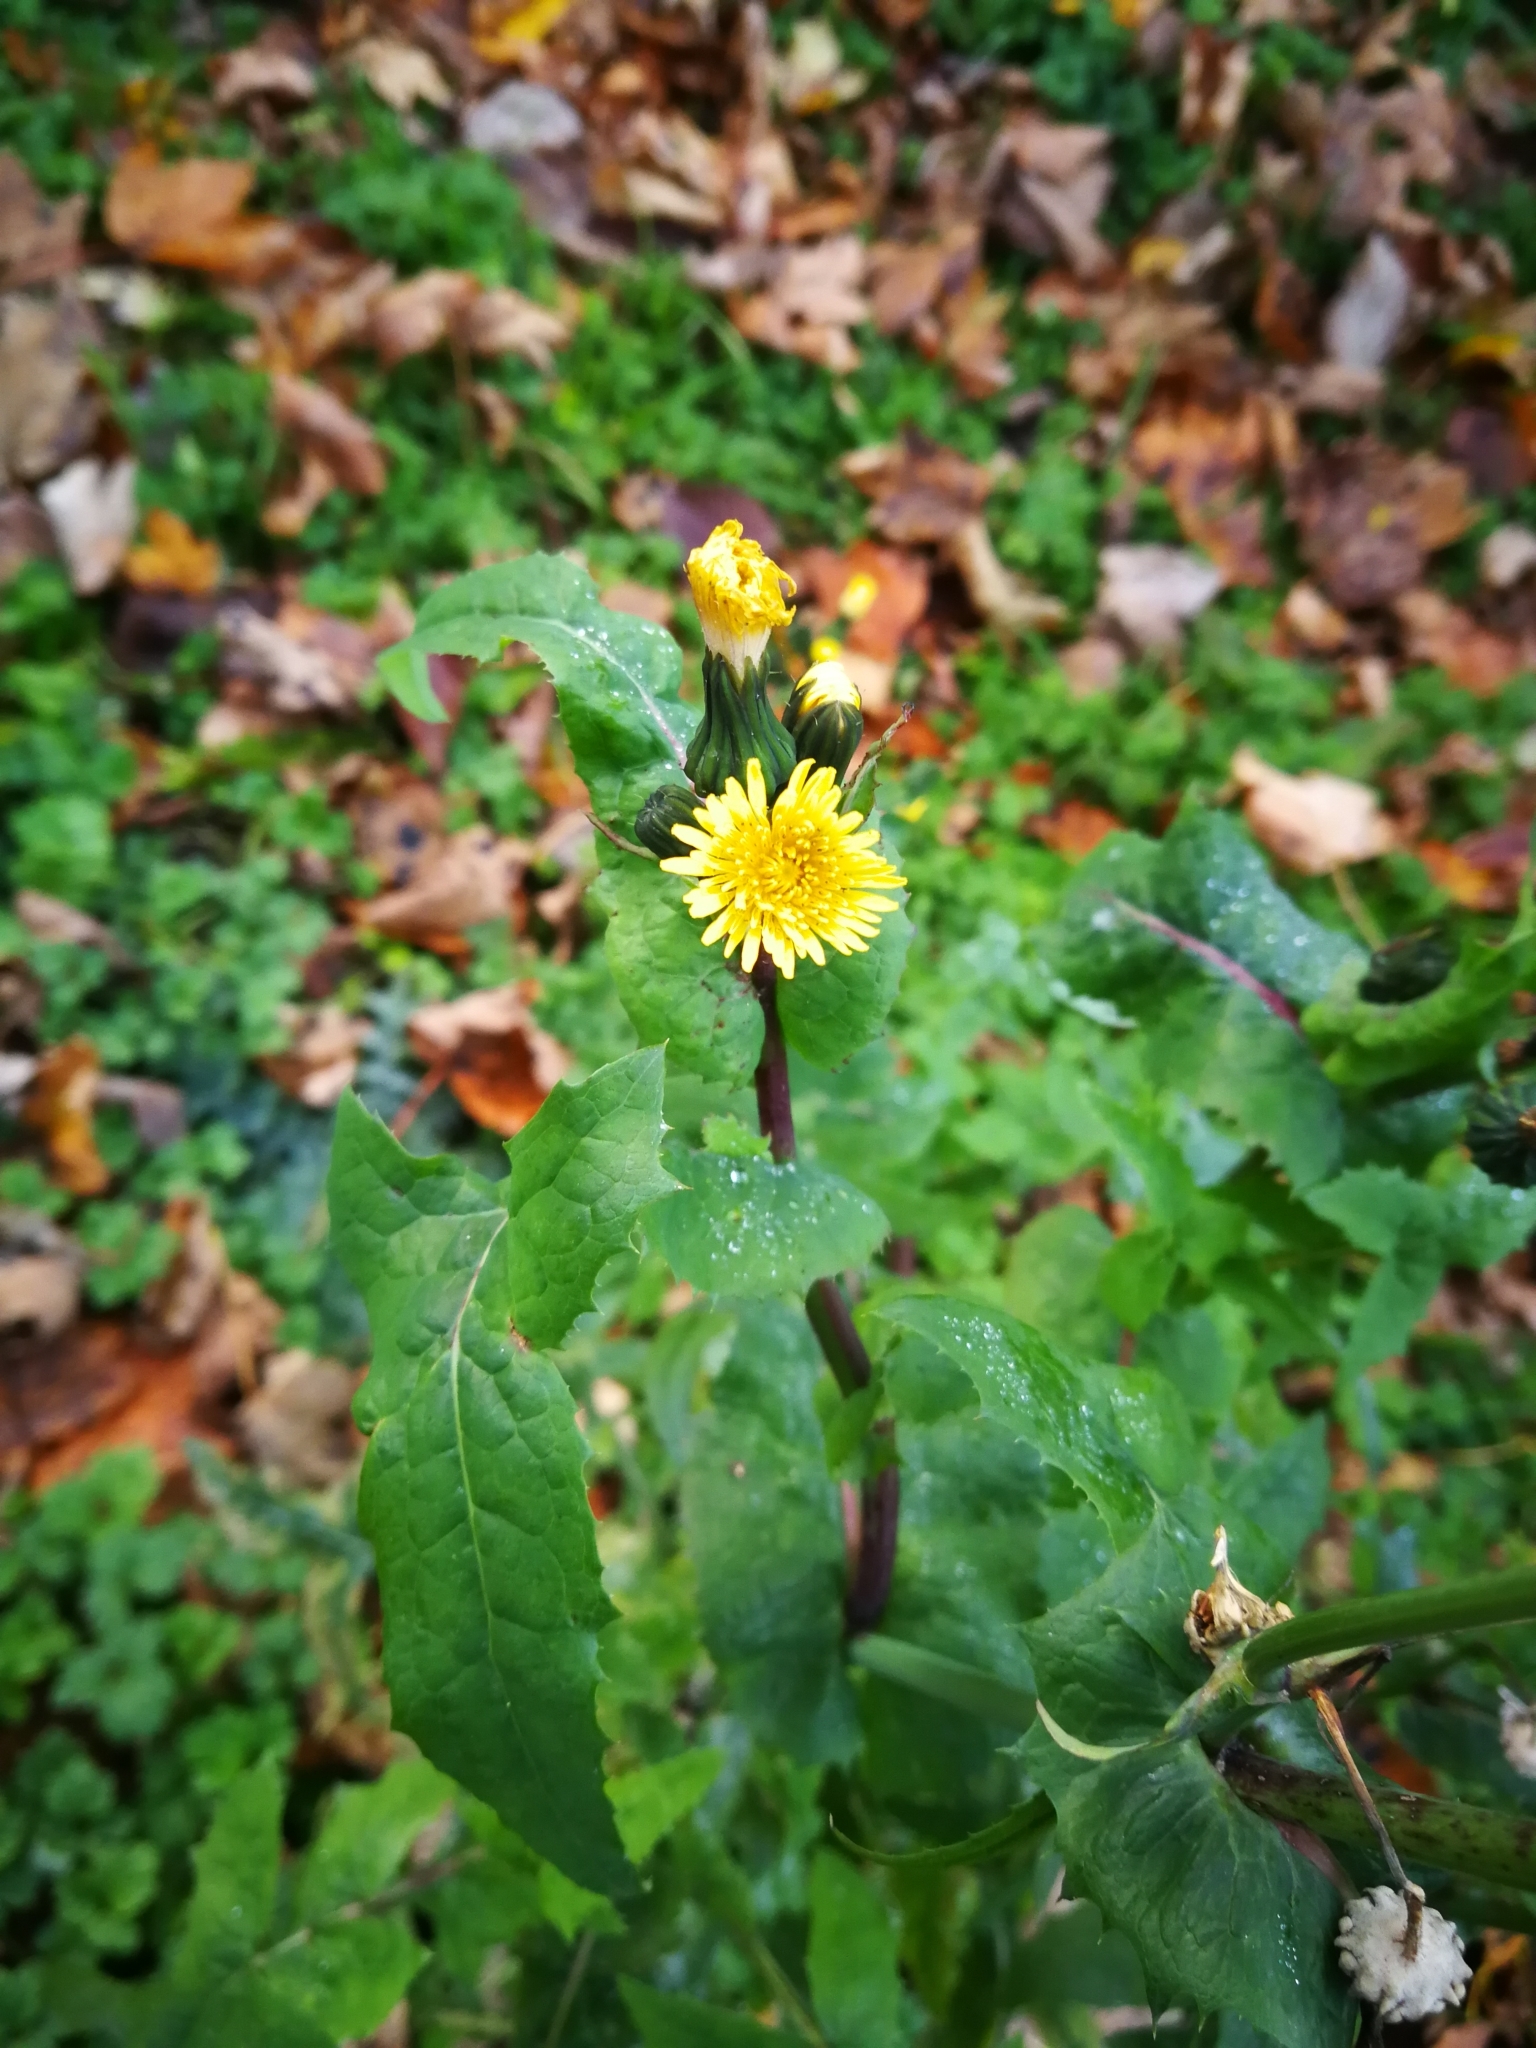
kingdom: Plantae
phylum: Tracheophyta
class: Magnoliopsida
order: Asterales
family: Asteraceae
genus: Sonchus
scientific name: Sonchus oleraceus
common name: Common sowthistle
